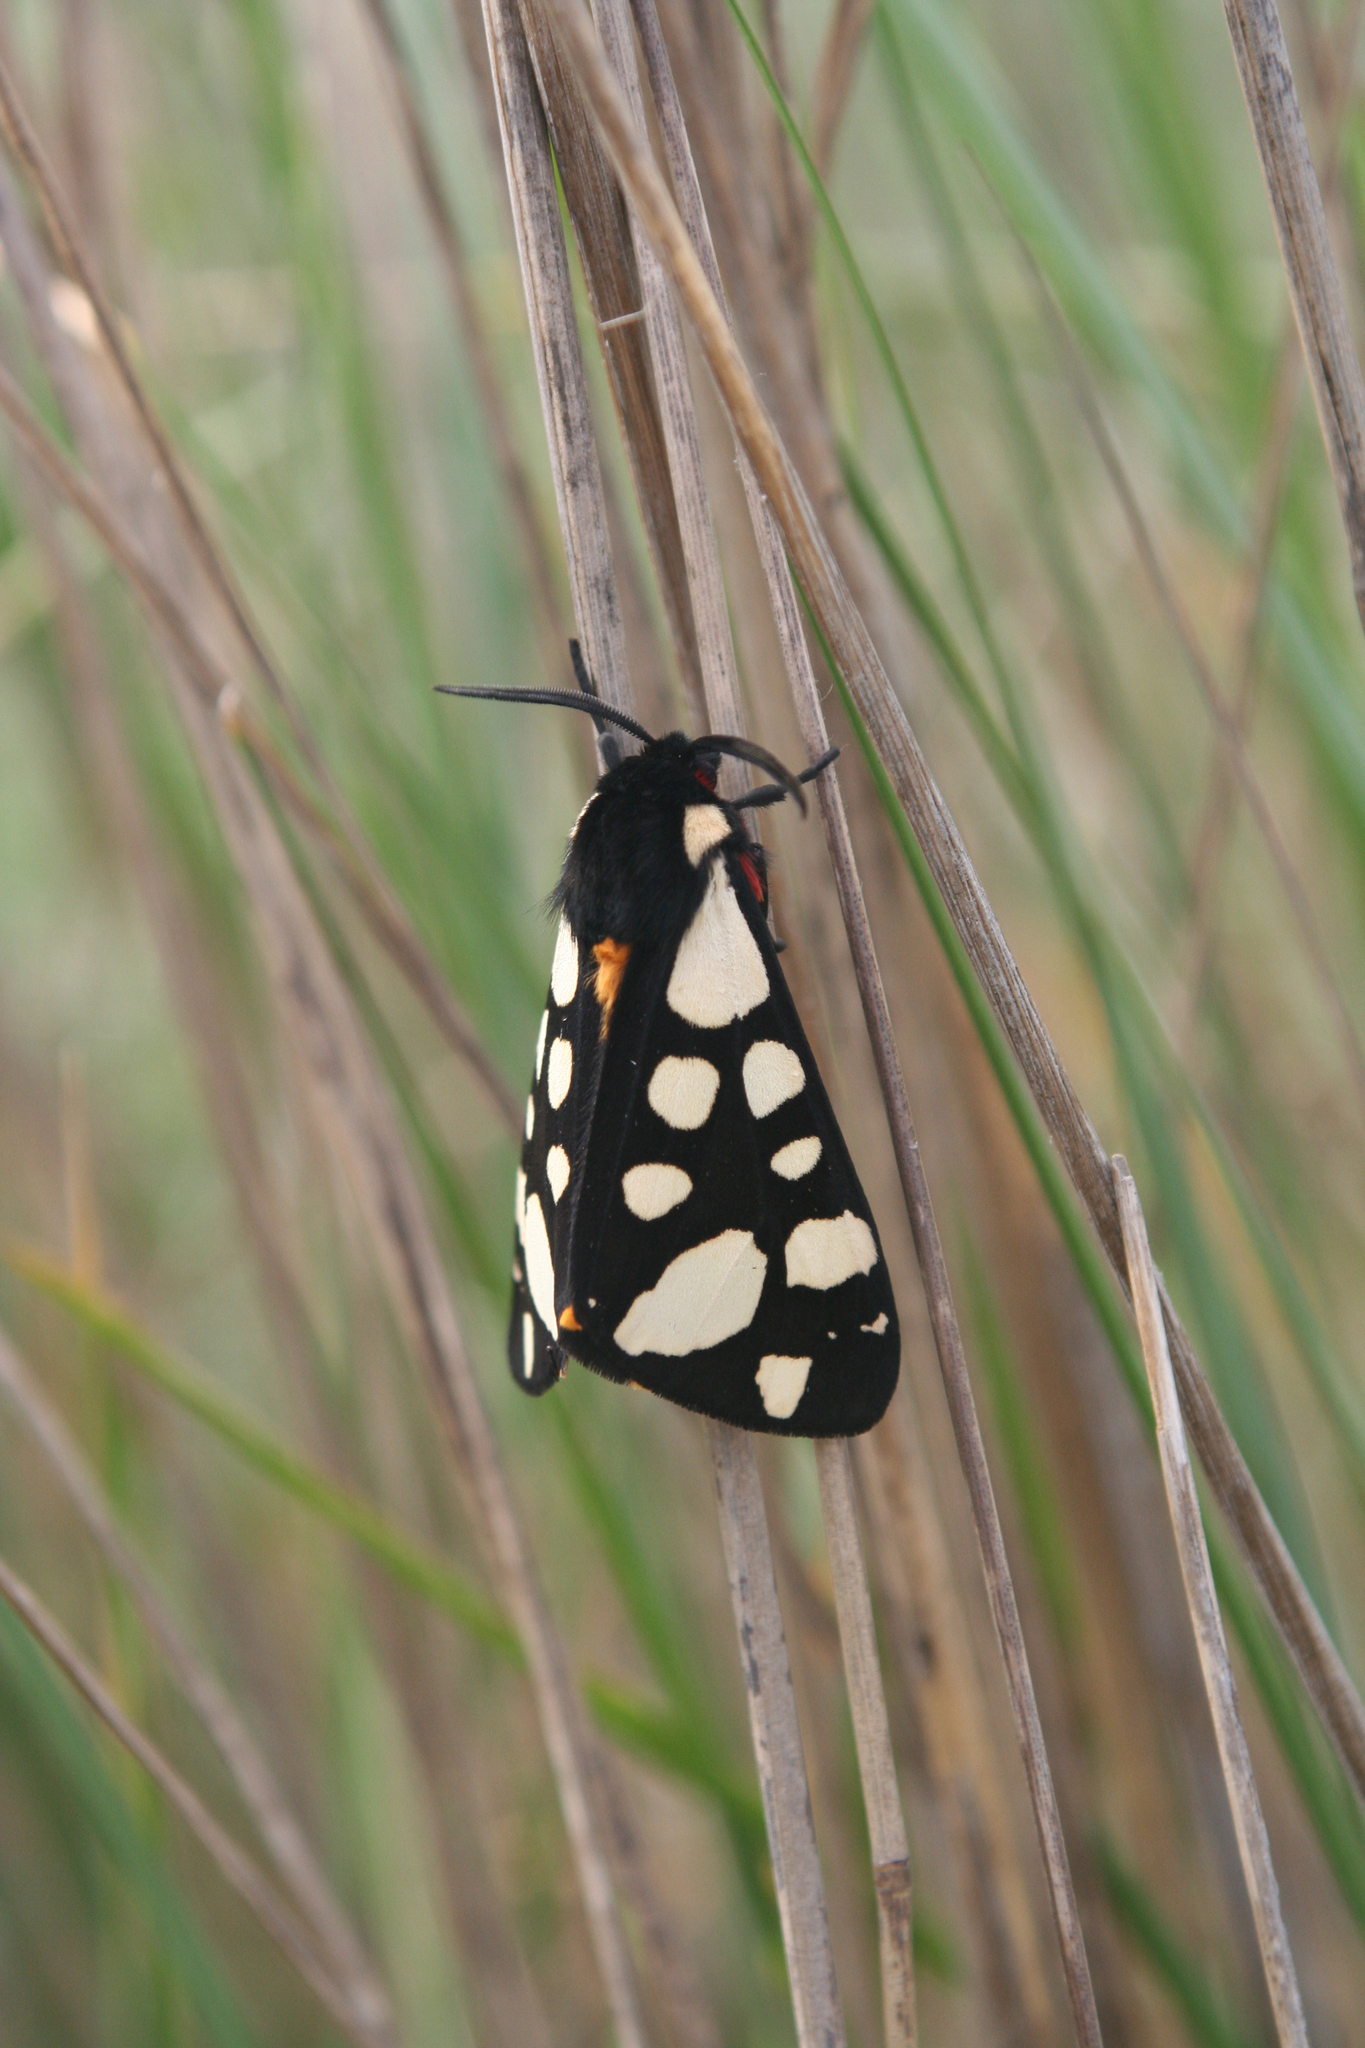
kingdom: Animalia
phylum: Arthropoda
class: Insecta
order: Lepidoptera
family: Erebidae
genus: Epicallia
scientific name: Epicallia villica
